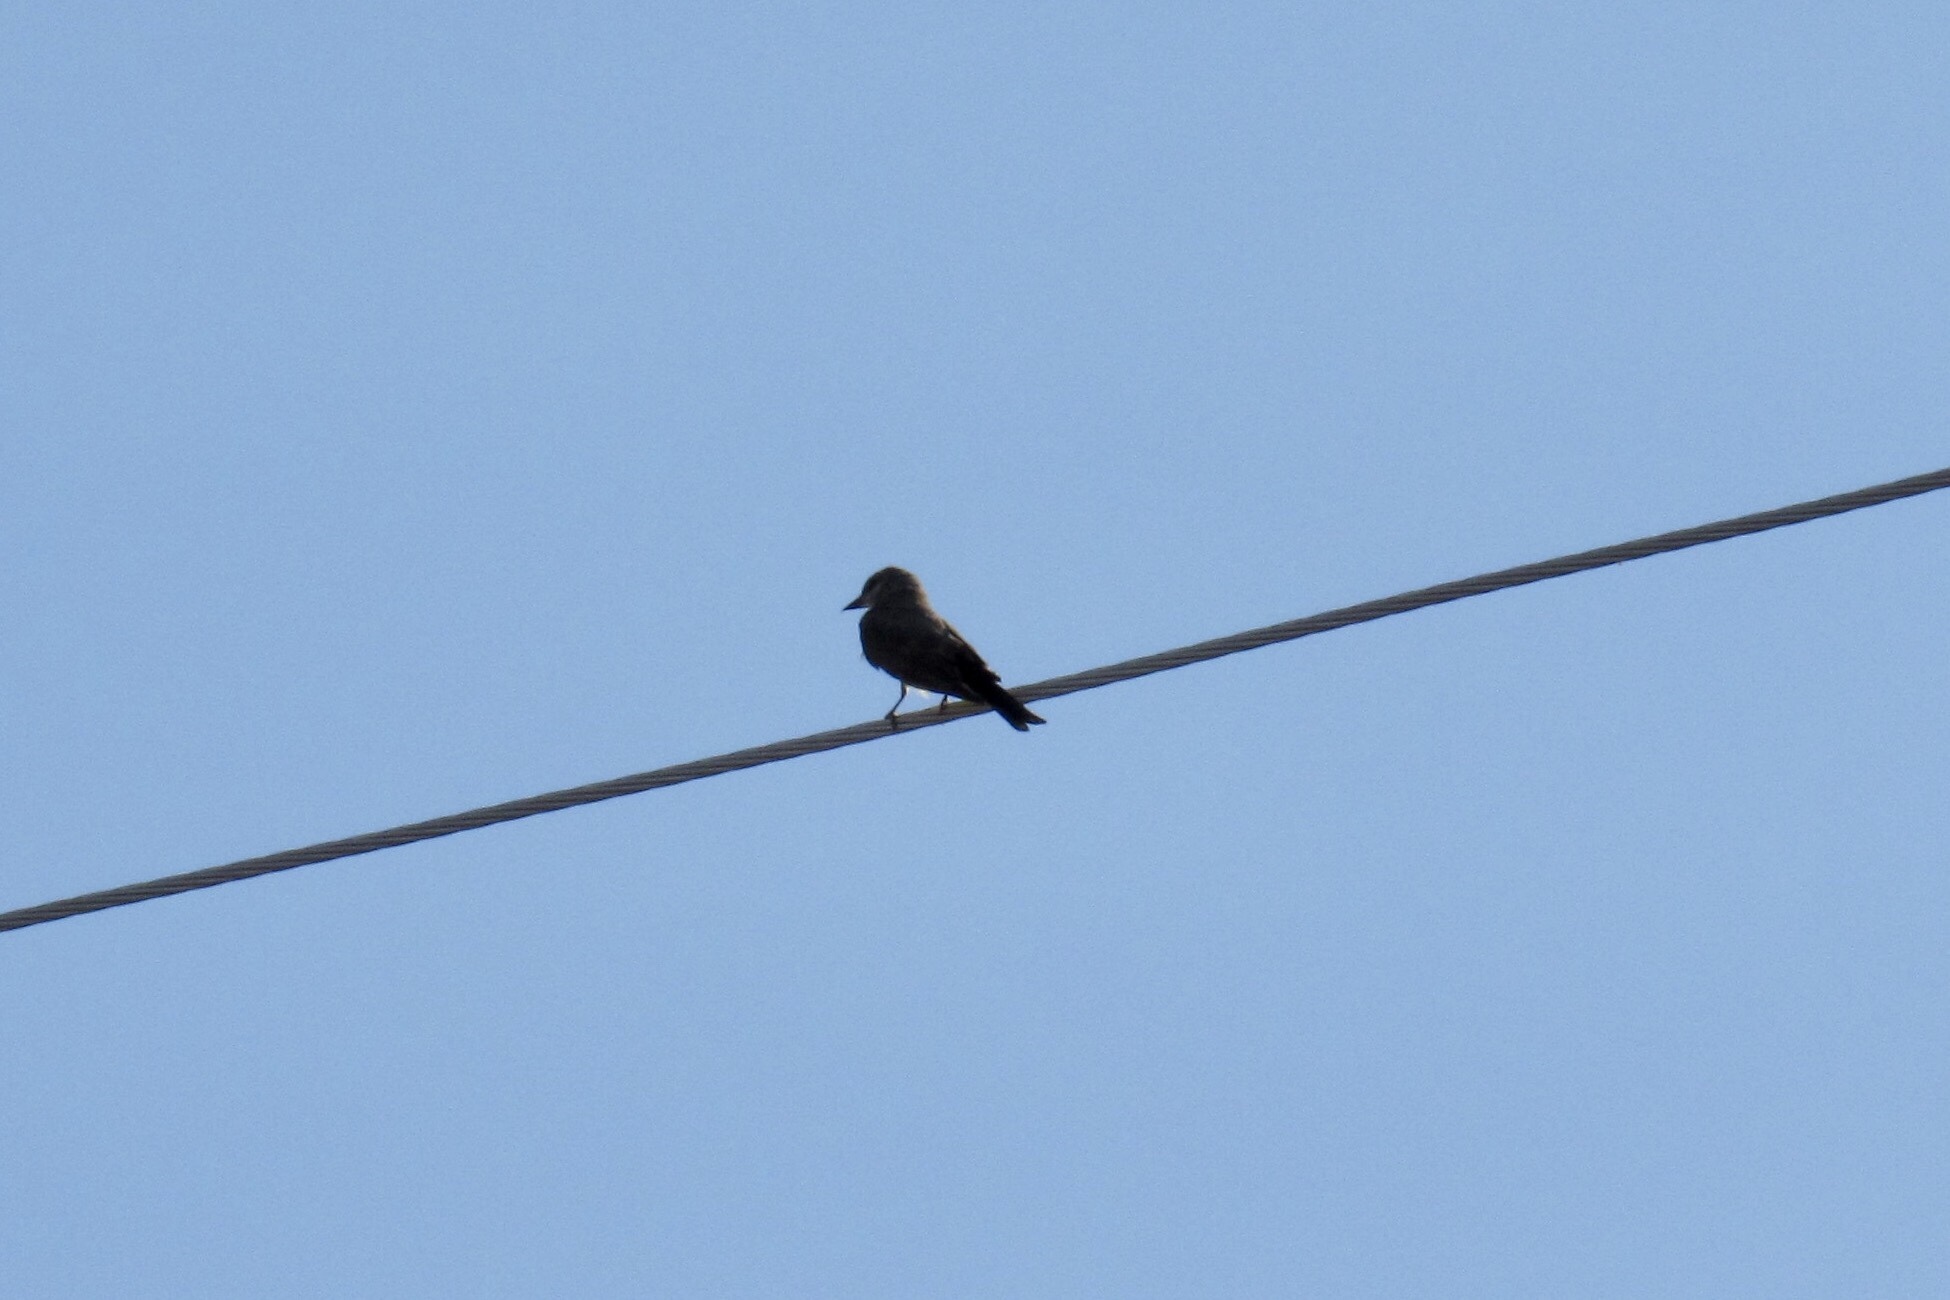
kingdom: Animalia
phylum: Chordata
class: Aves
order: Passeriformes
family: Tyrannidae
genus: Tyrannus
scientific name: Tyrannus vociferans
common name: Cassin's kingbird
